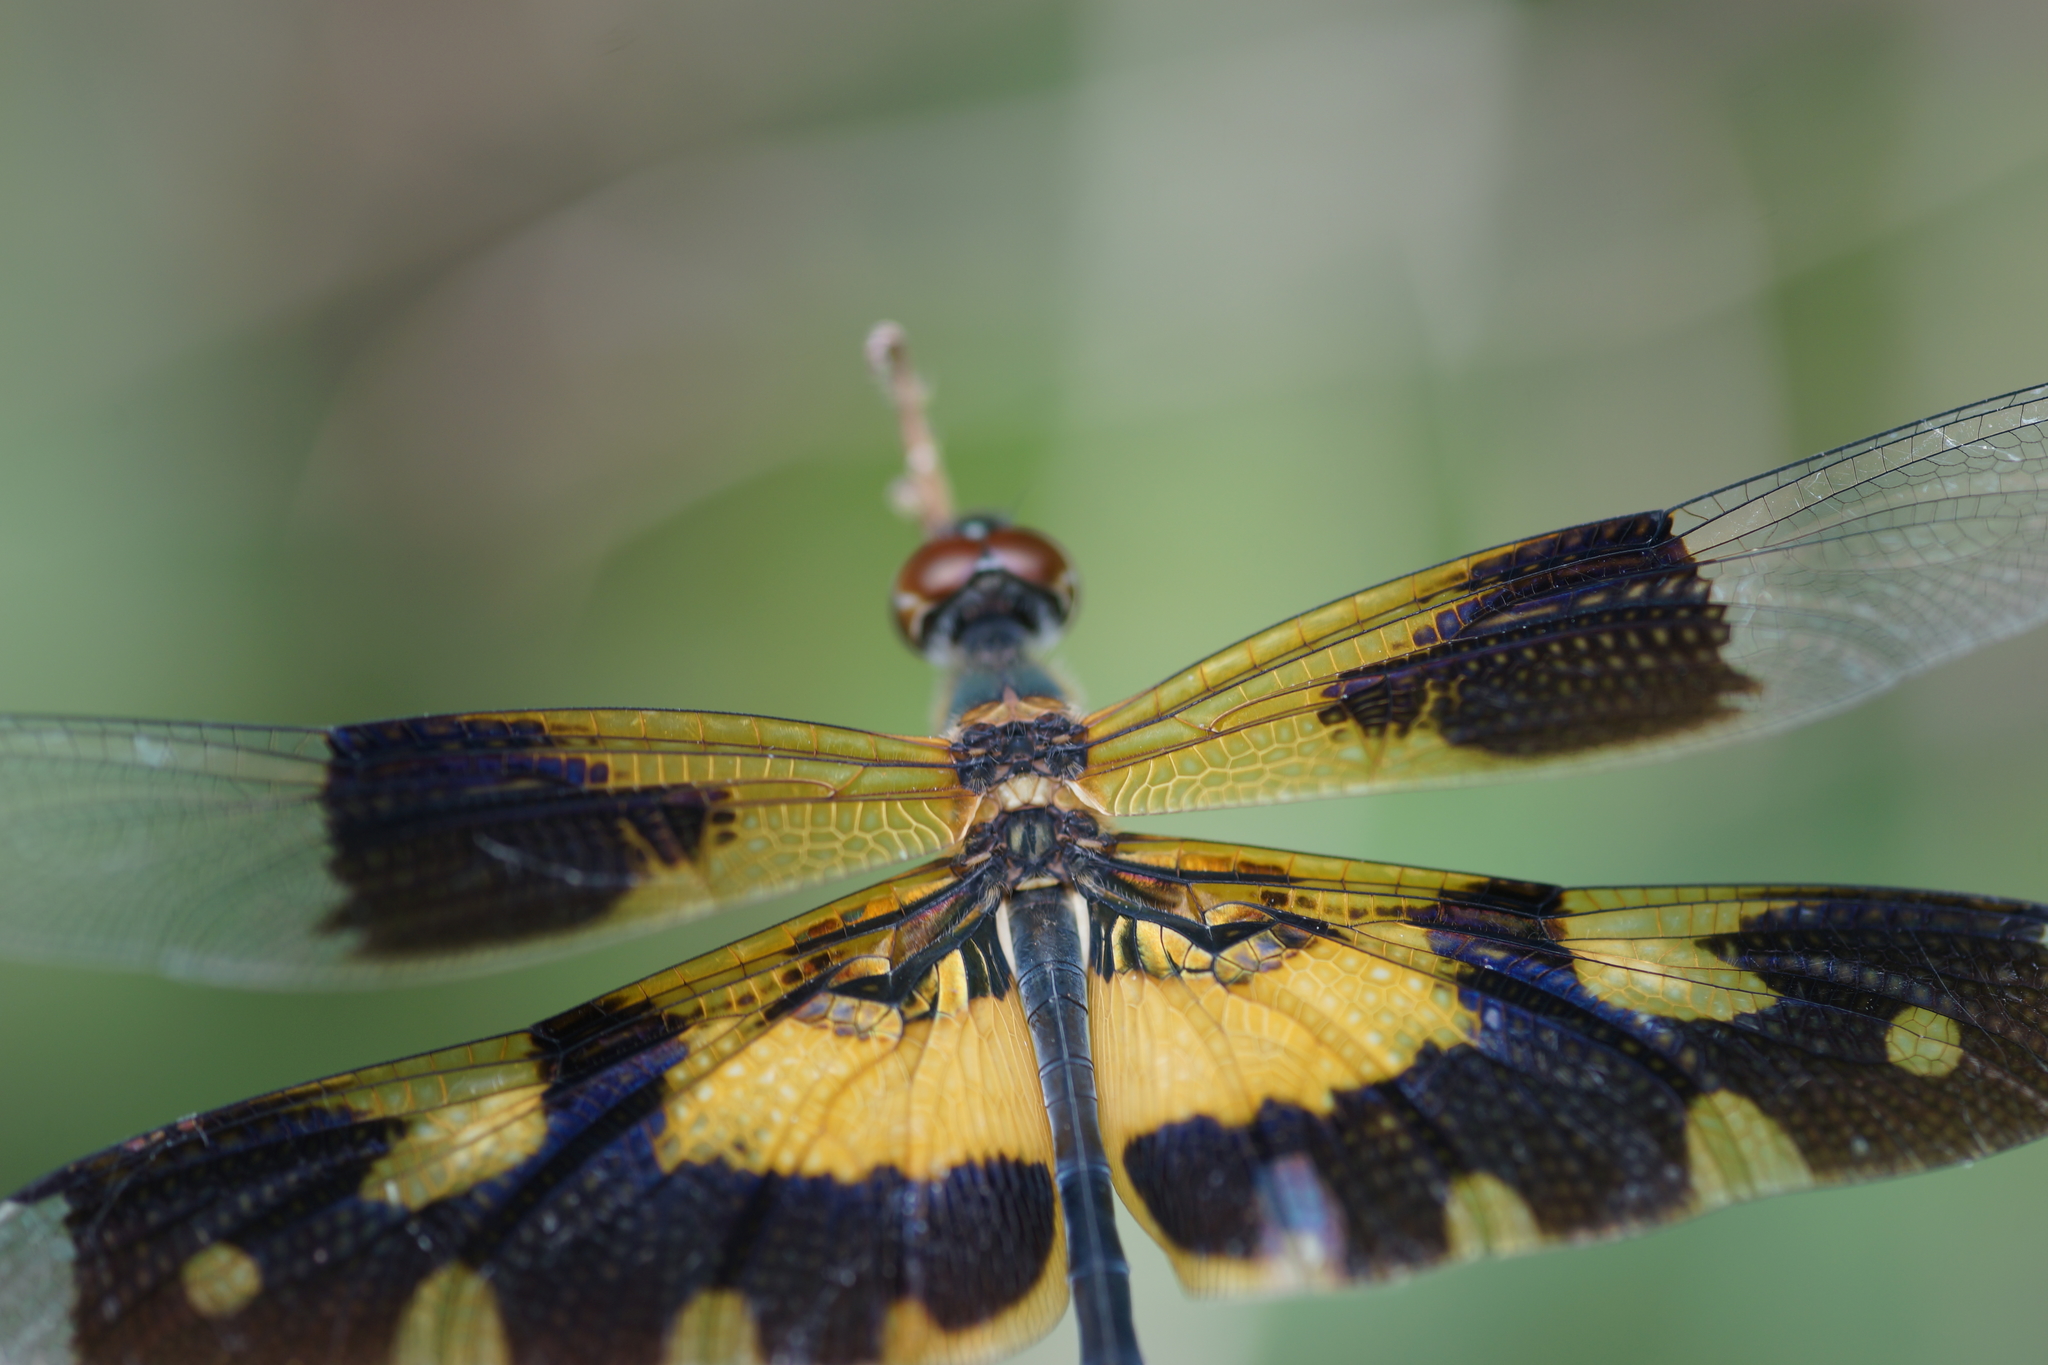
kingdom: Animalia
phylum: Arthropoda
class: Insecta
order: Odonata
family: Libellulidae
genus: Rhyothemis
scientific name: Rhyothemis variegata
